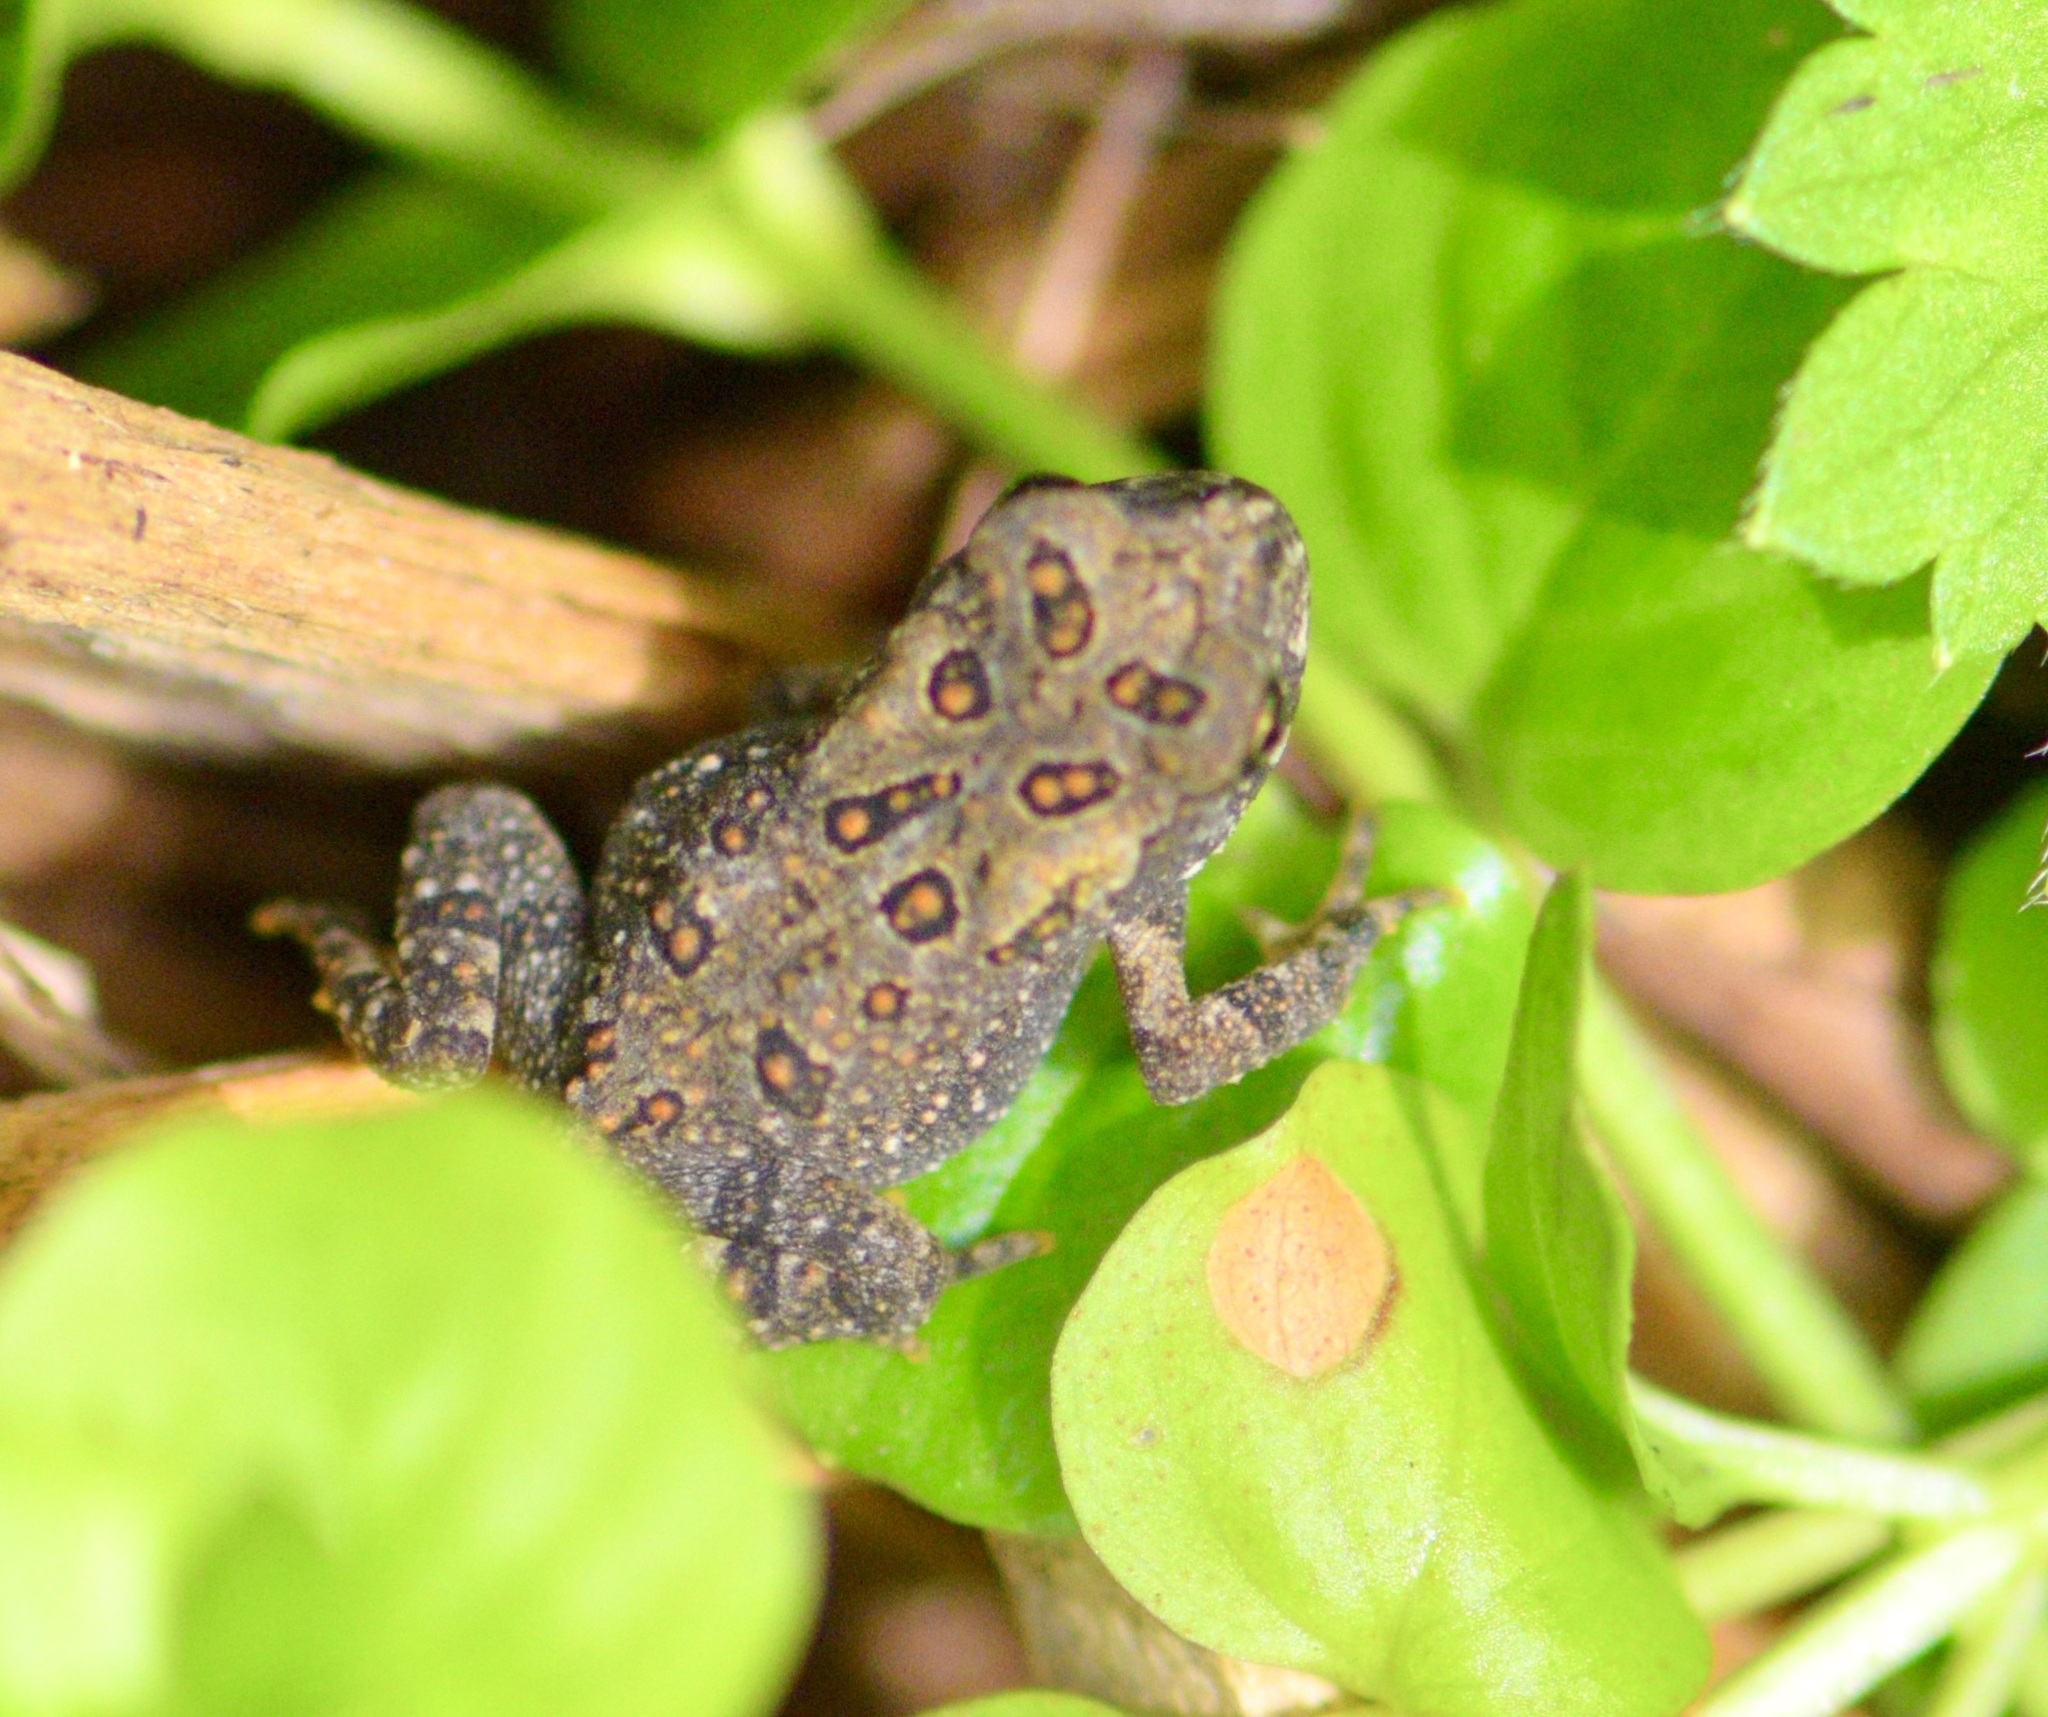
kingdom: Animalia
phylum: Chordata
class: Amphibia
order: Anura
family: Bufonidae
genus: Anaxyrus
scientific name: Anaxyrus americanus
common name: American toad
